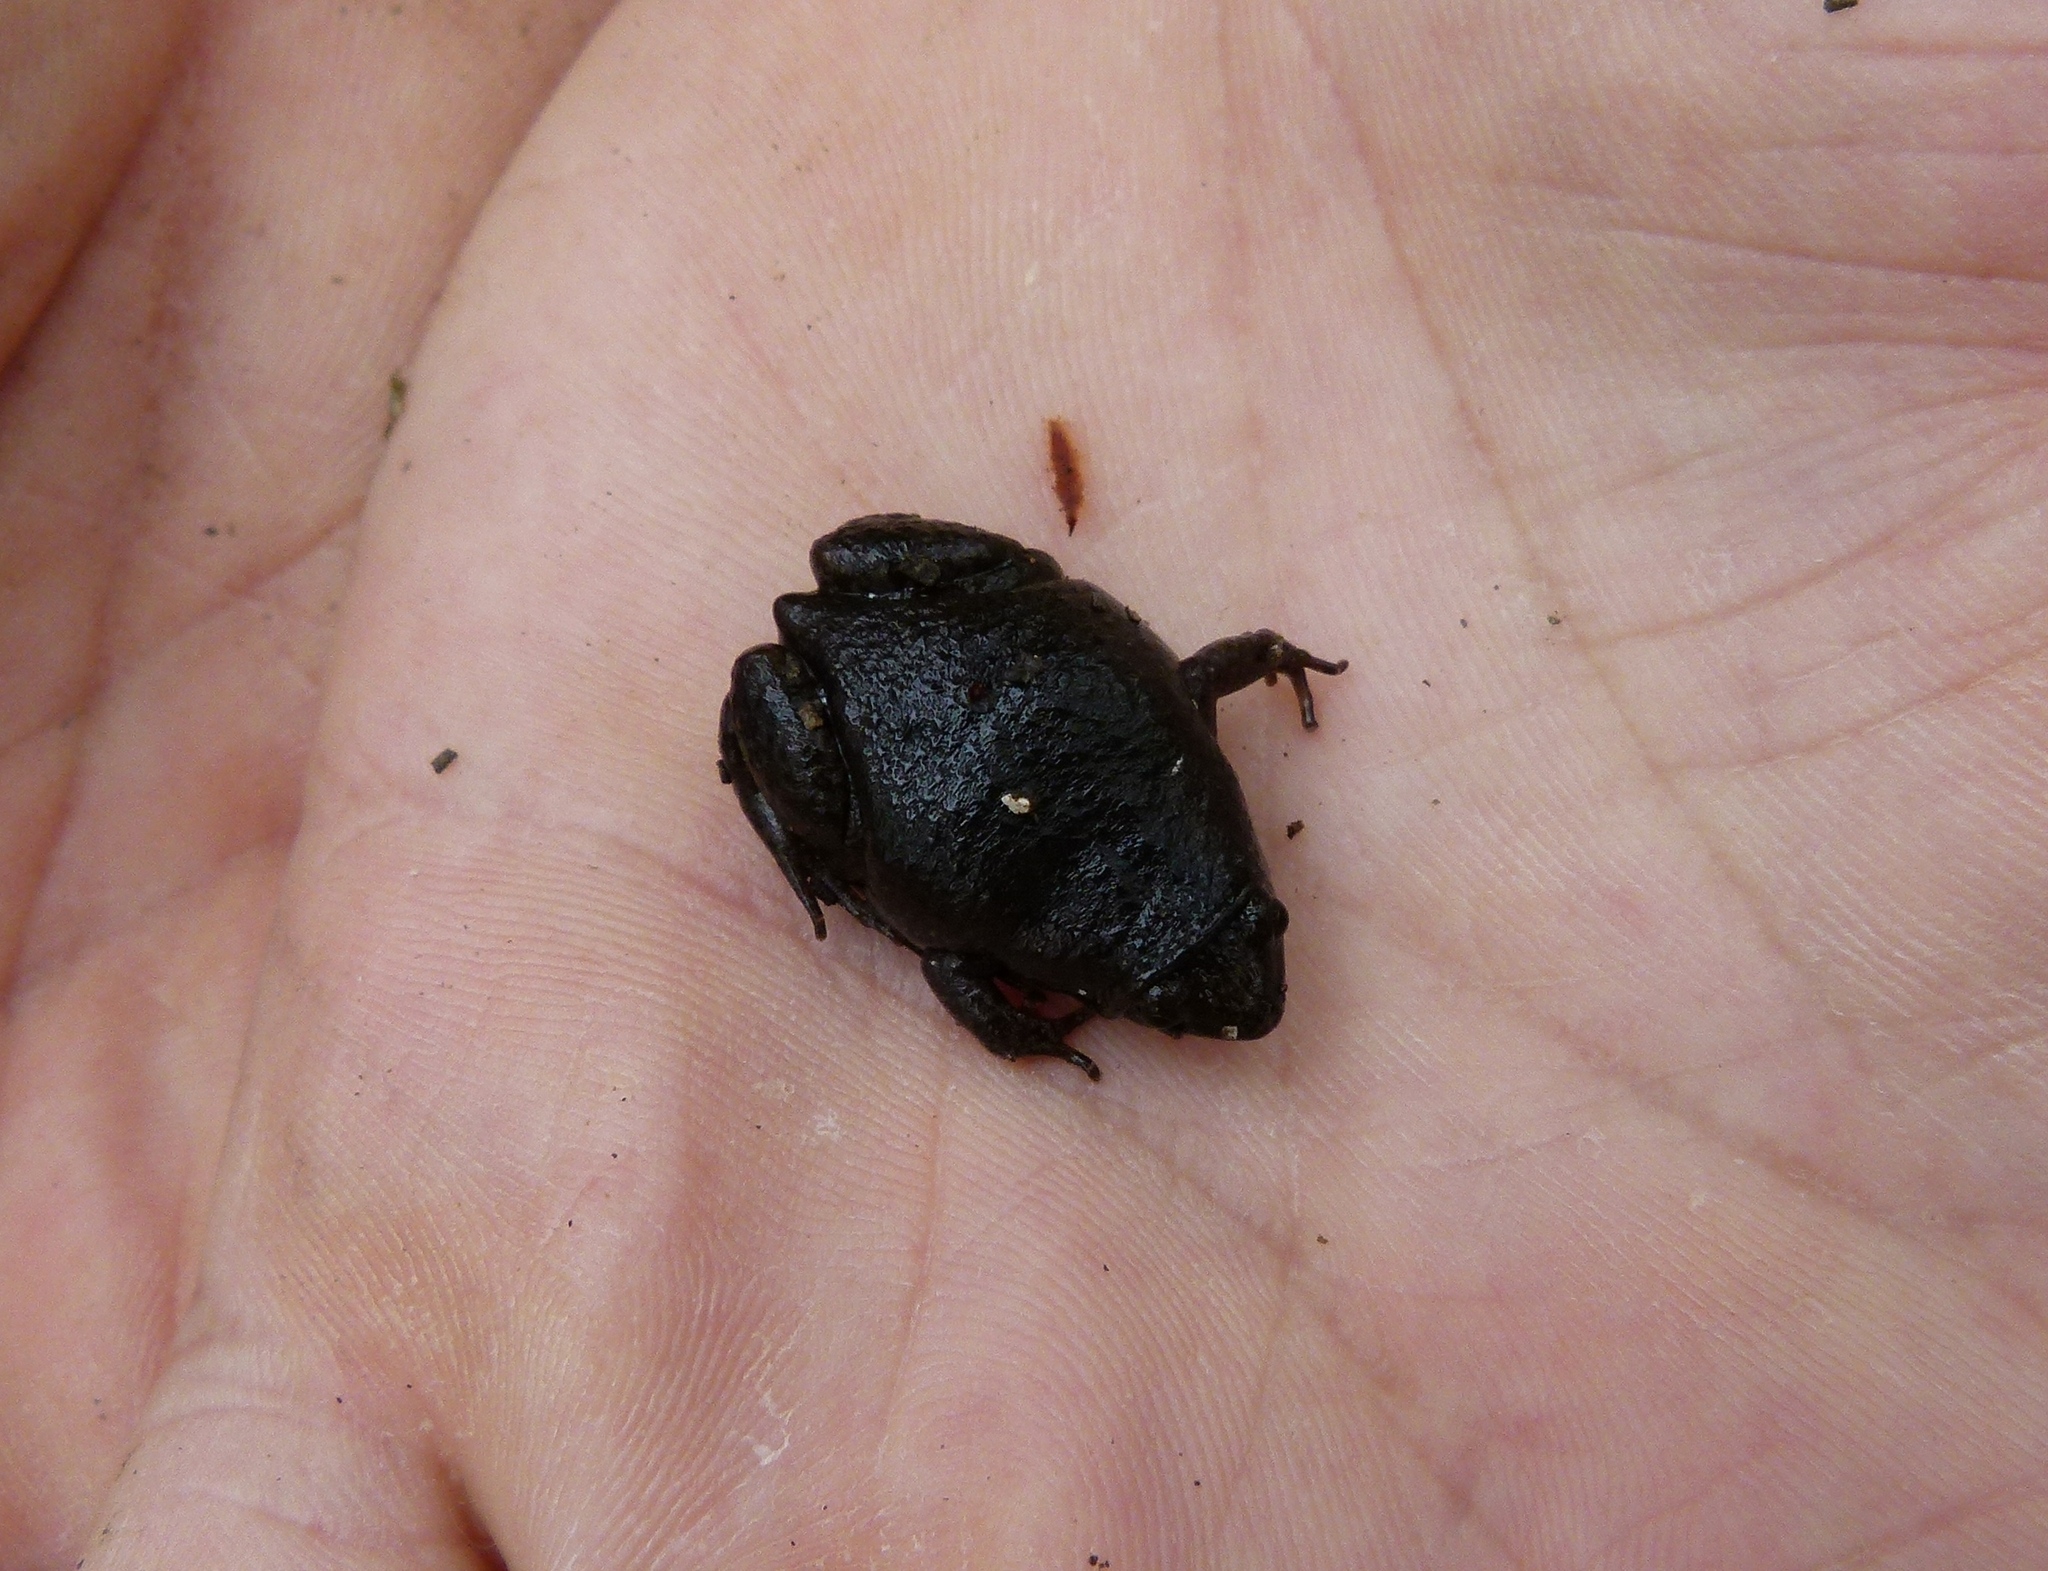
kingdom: Animalia
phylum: Chordata
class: Amphibia
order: Anura
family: Microhylidae
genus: Gastrophryne
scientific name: Gastrophryne carolinensis
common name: Eastern narrowmouth toad
